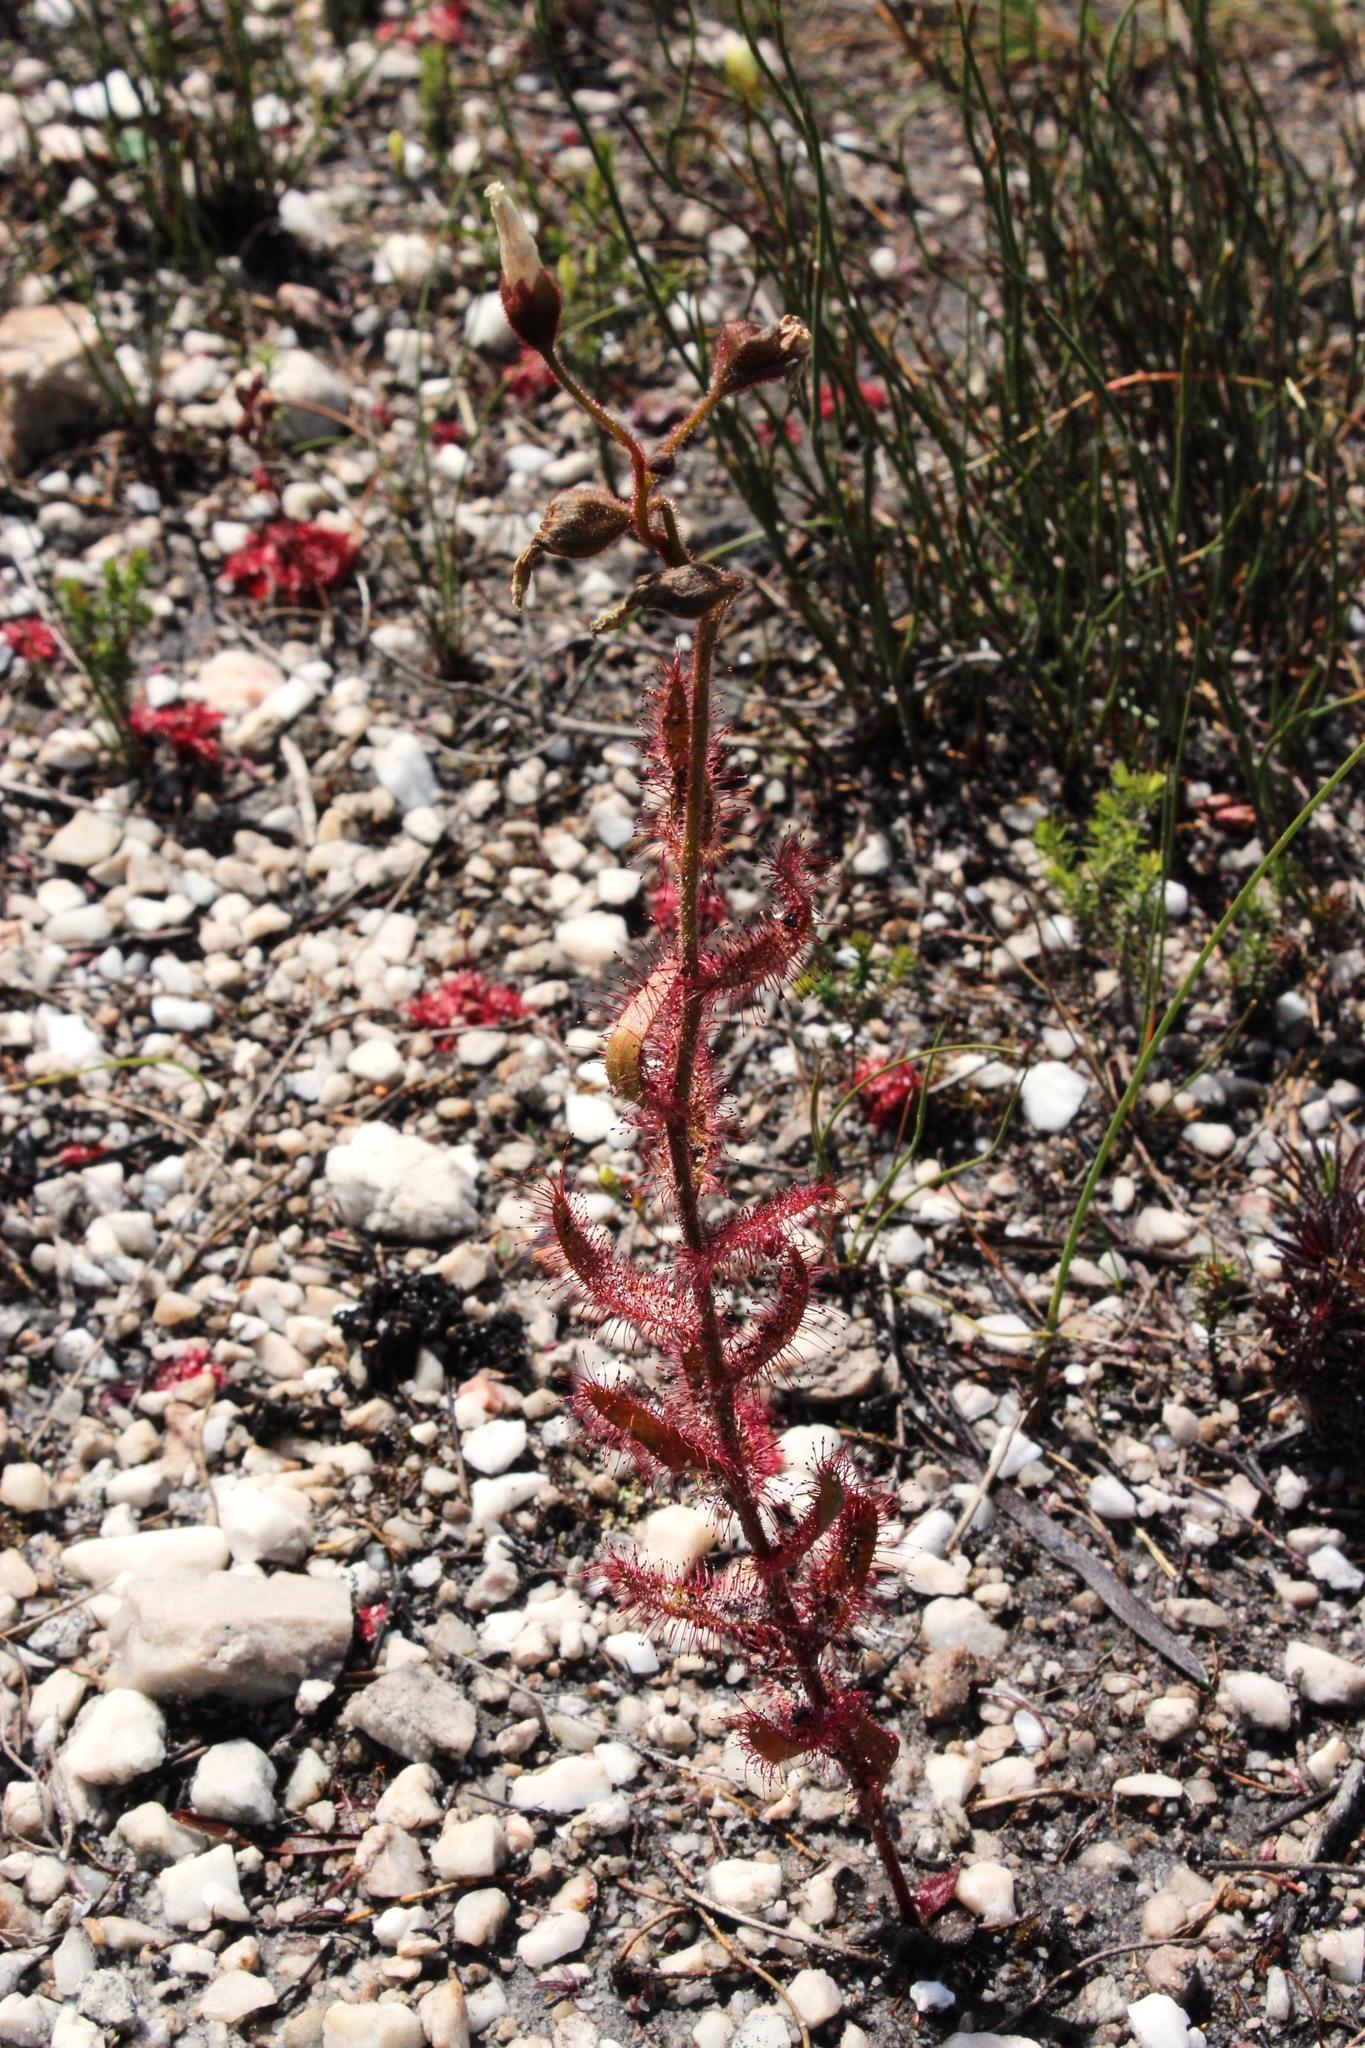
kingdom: Plantae
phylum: Tracheophyta
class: Magnoliopsida
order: Caryophyllales
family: Droseraceae
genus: Drosera
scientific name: Drosera cistiflora
